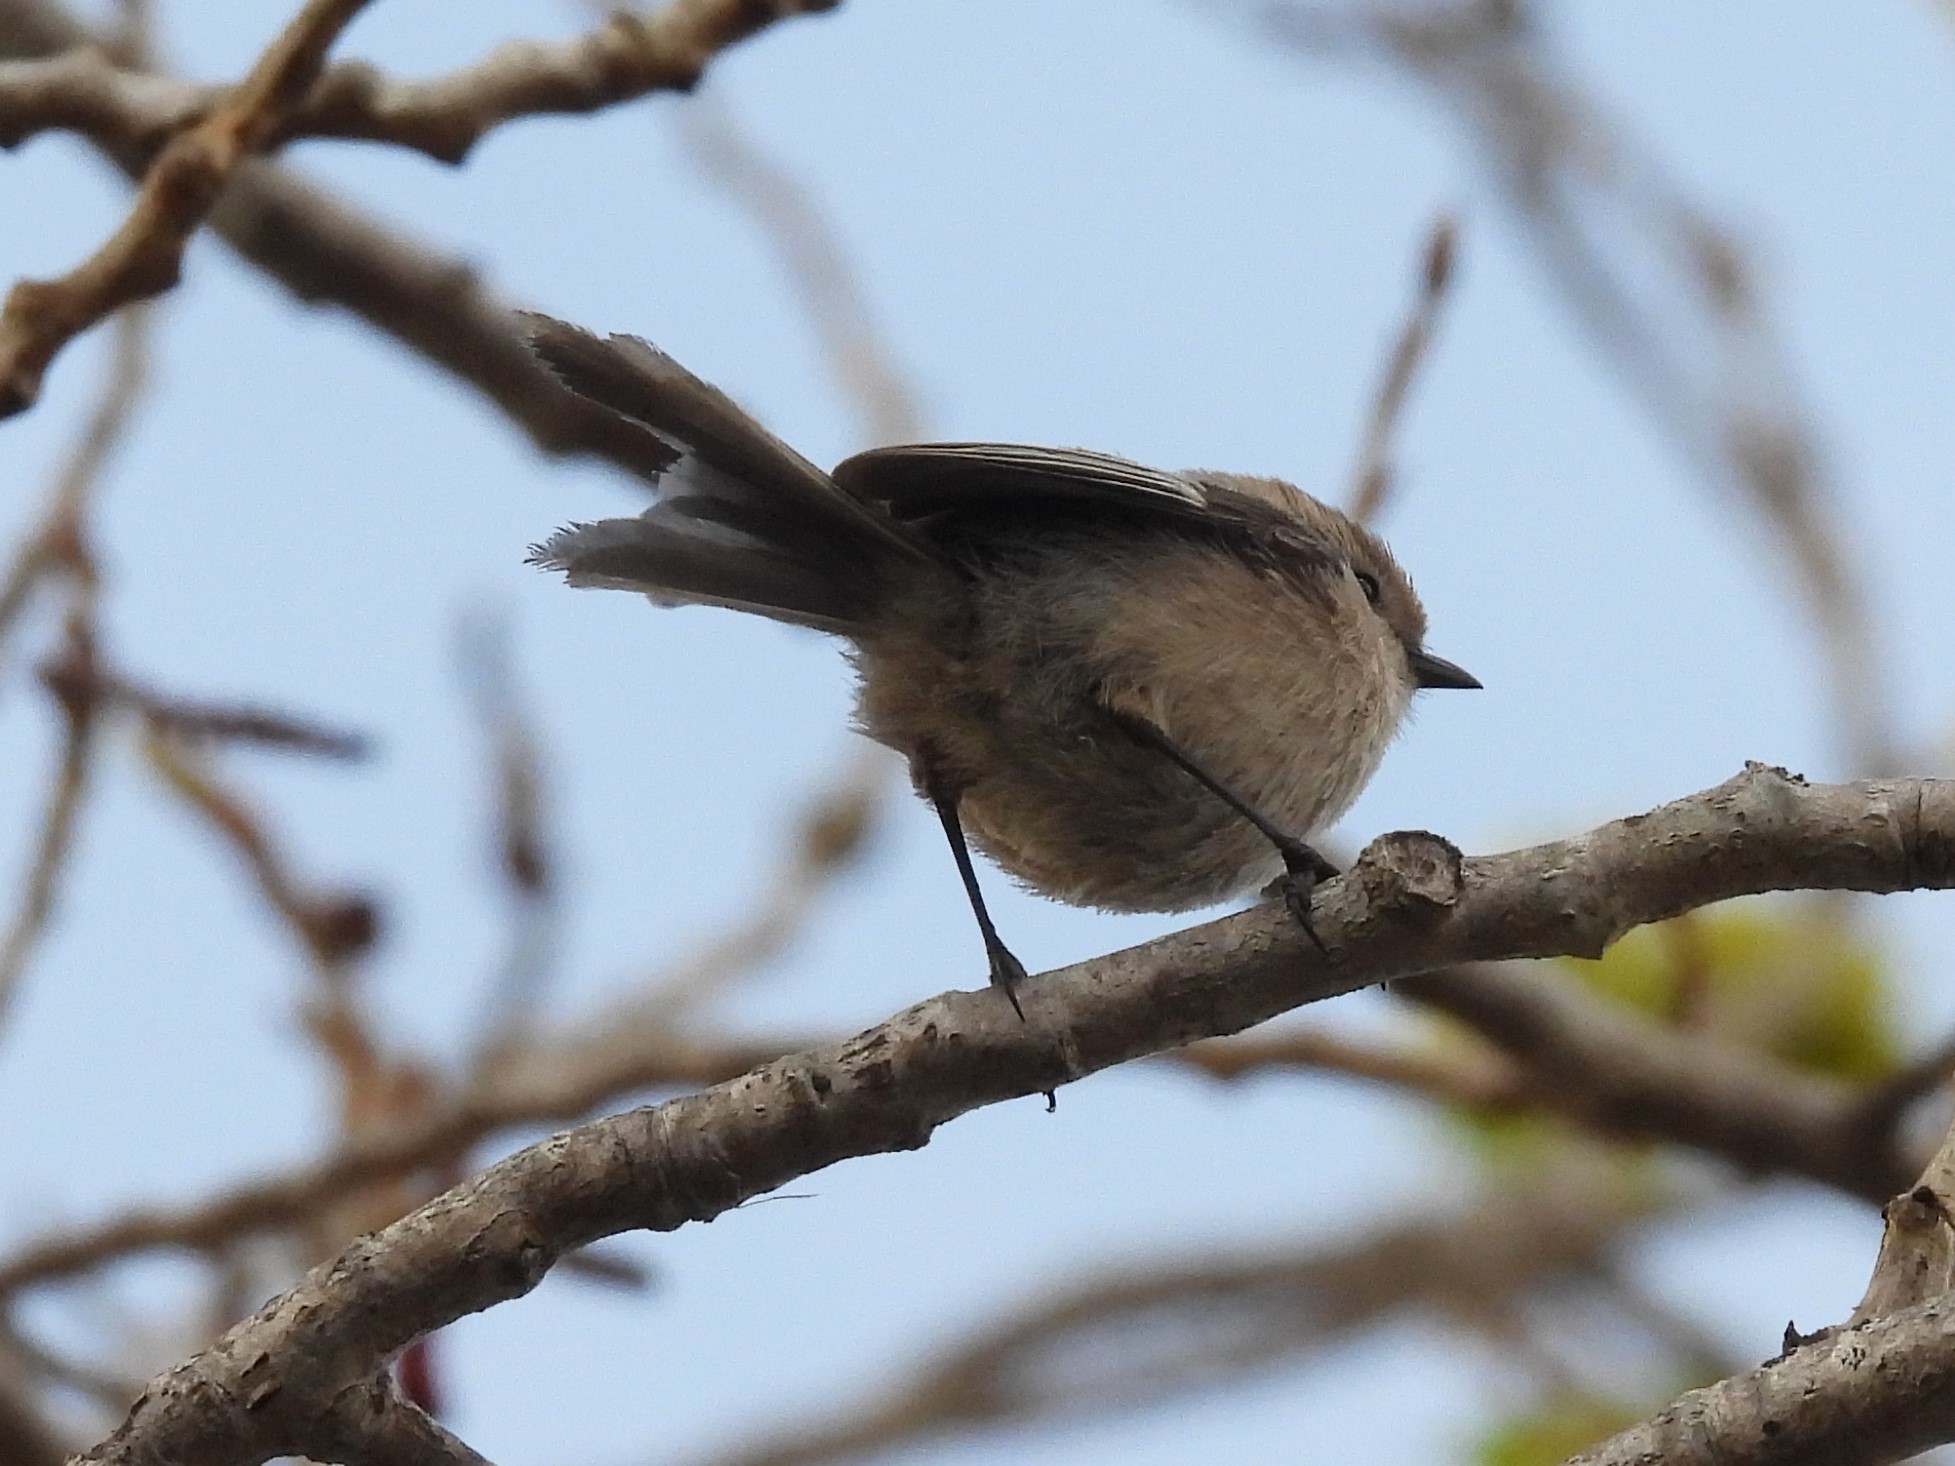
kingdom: Animalia
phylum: Chordata
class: Aves
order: Passeriformes
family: Aegithalidae
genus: Psaltriparus
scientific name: Psaltriparus minimus
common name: American bushtit
